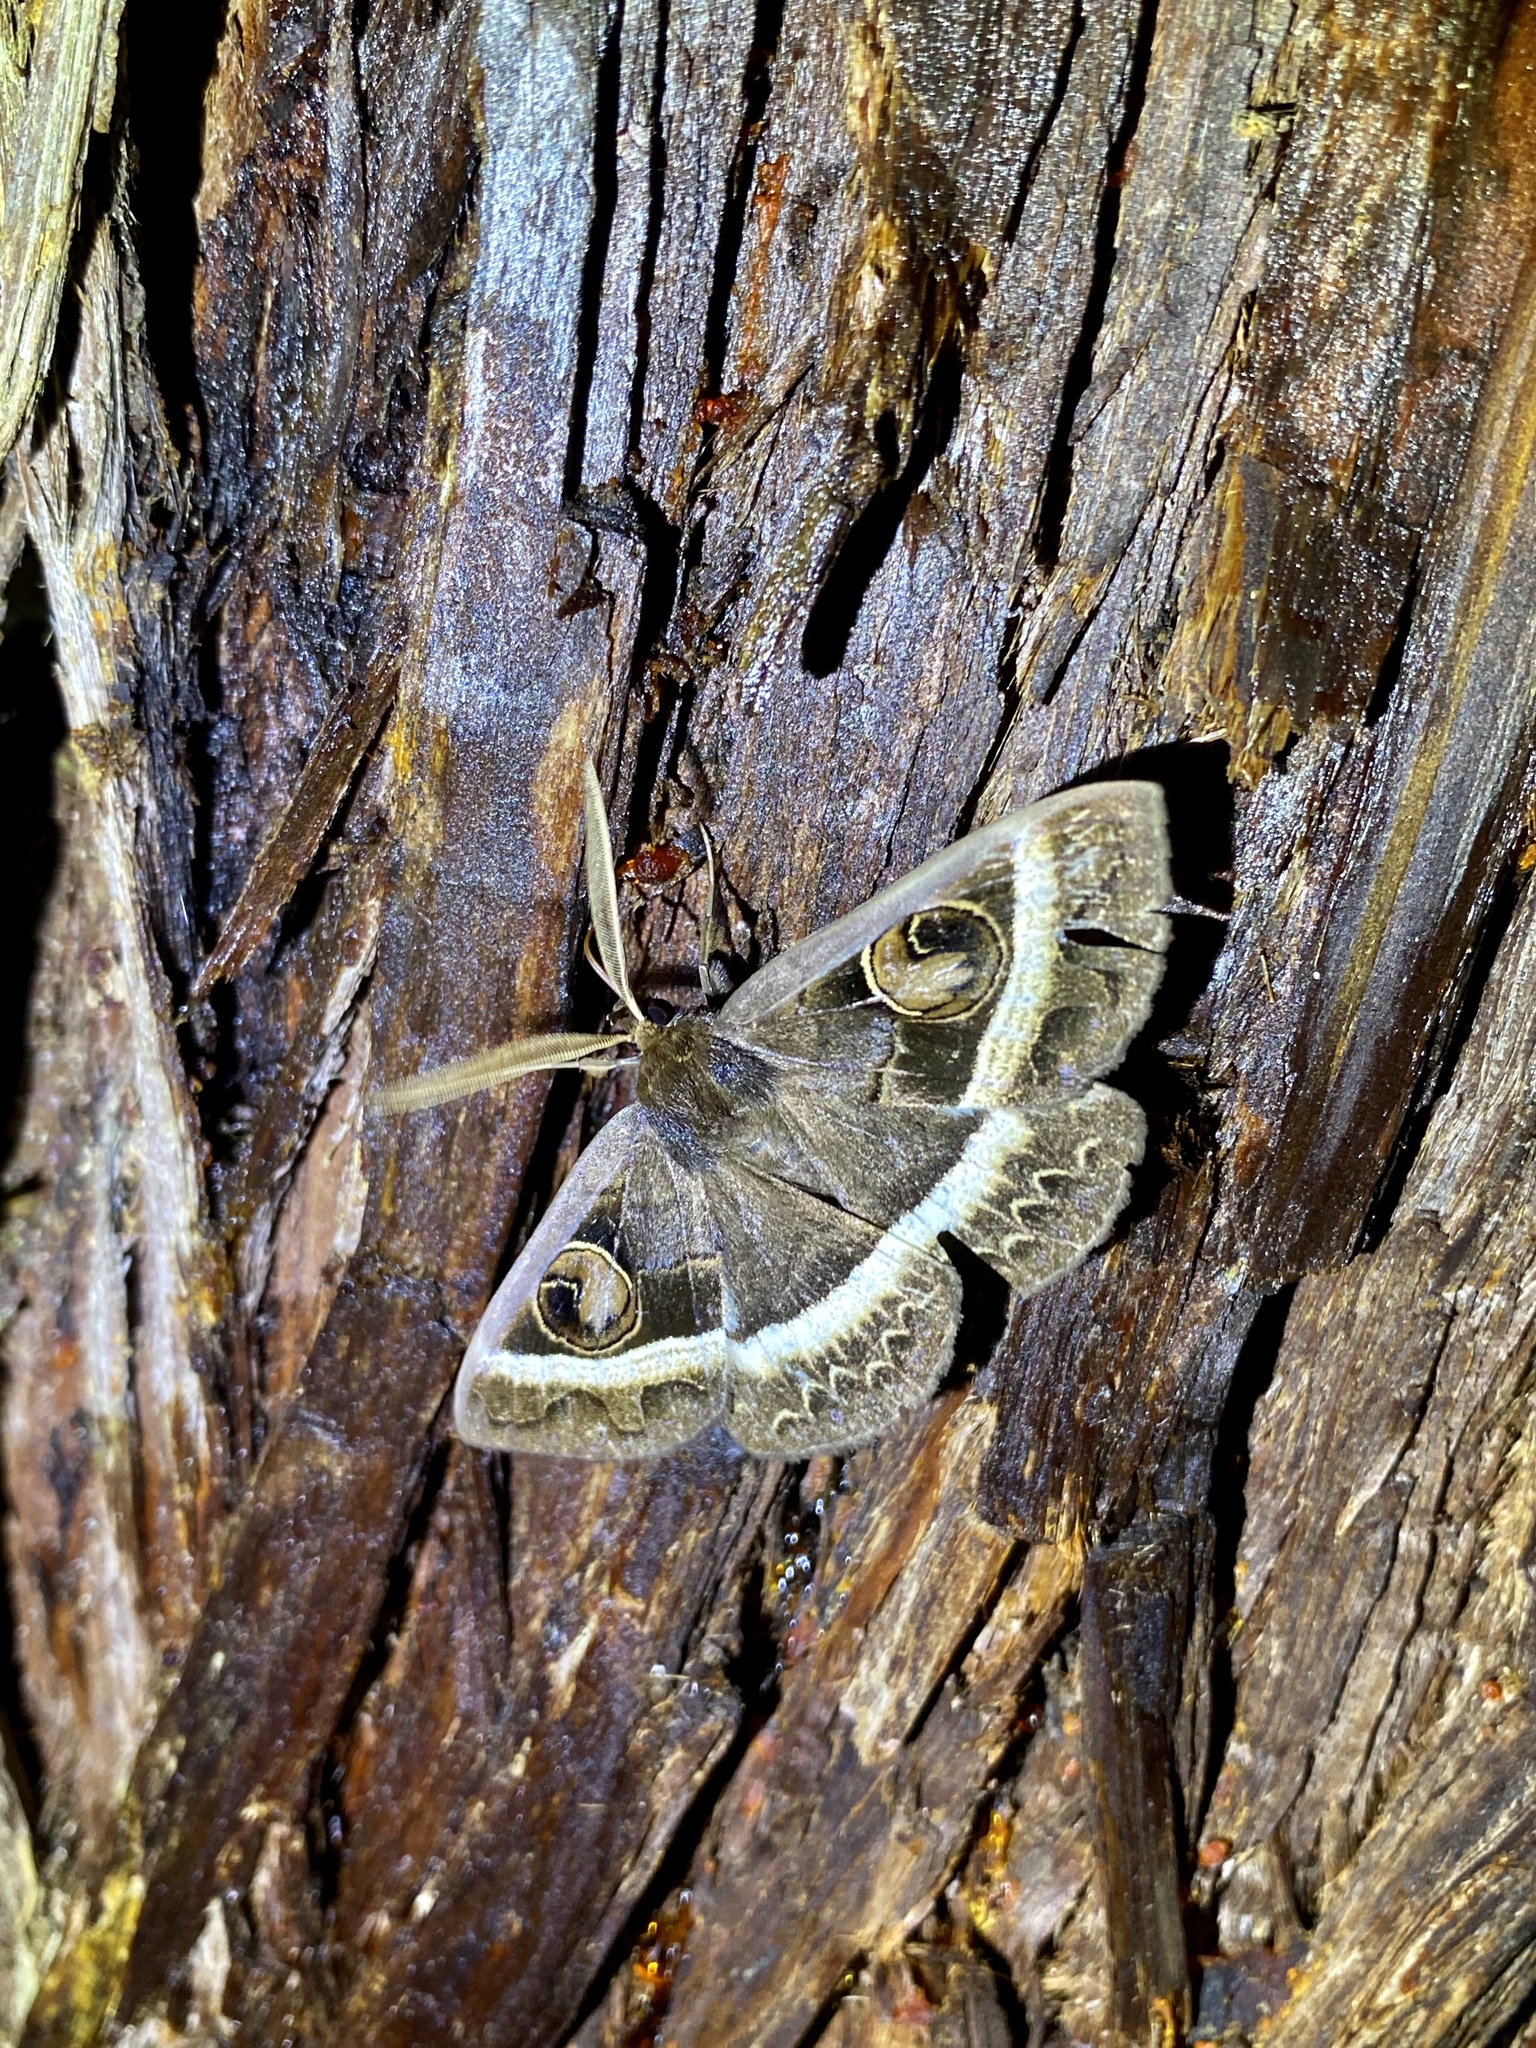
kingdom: Animalia
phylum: Arthropoda
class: Insecta
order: Lepidoptera
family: Erebidae
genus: Metopta
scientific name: Metopta rectifasciata
